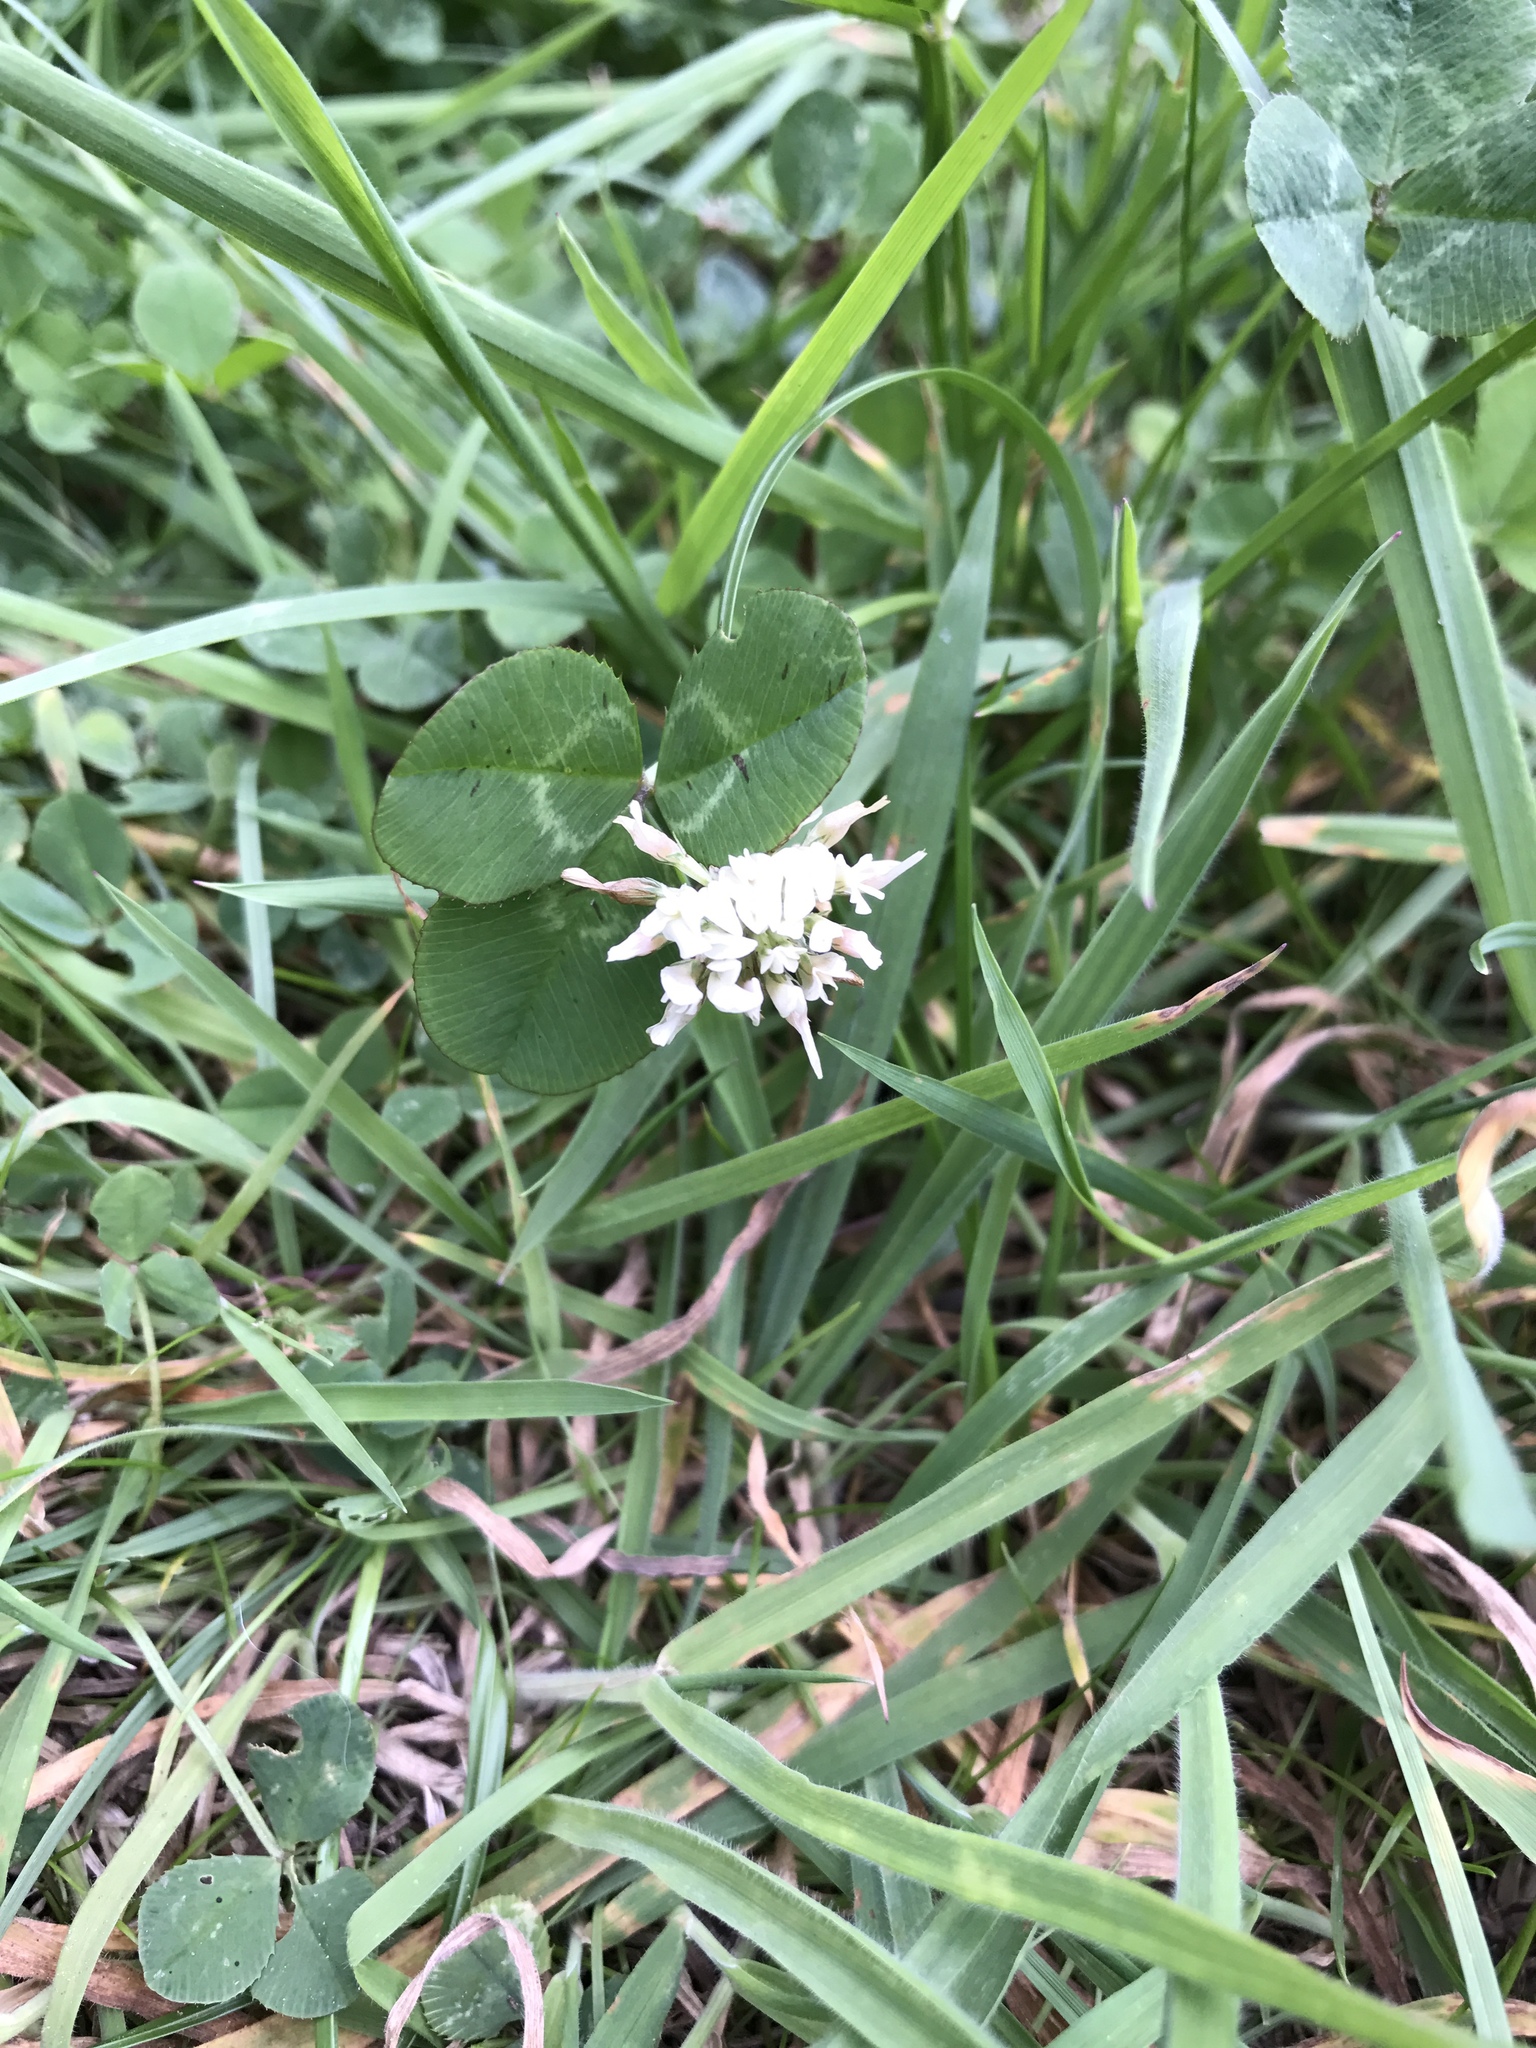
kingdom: Plantae
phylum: Tracheophyta
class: Magnoliopsida
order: Fabales
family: Fabaceae
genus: Trifolium
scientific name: Trifolium repens
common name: White clover
